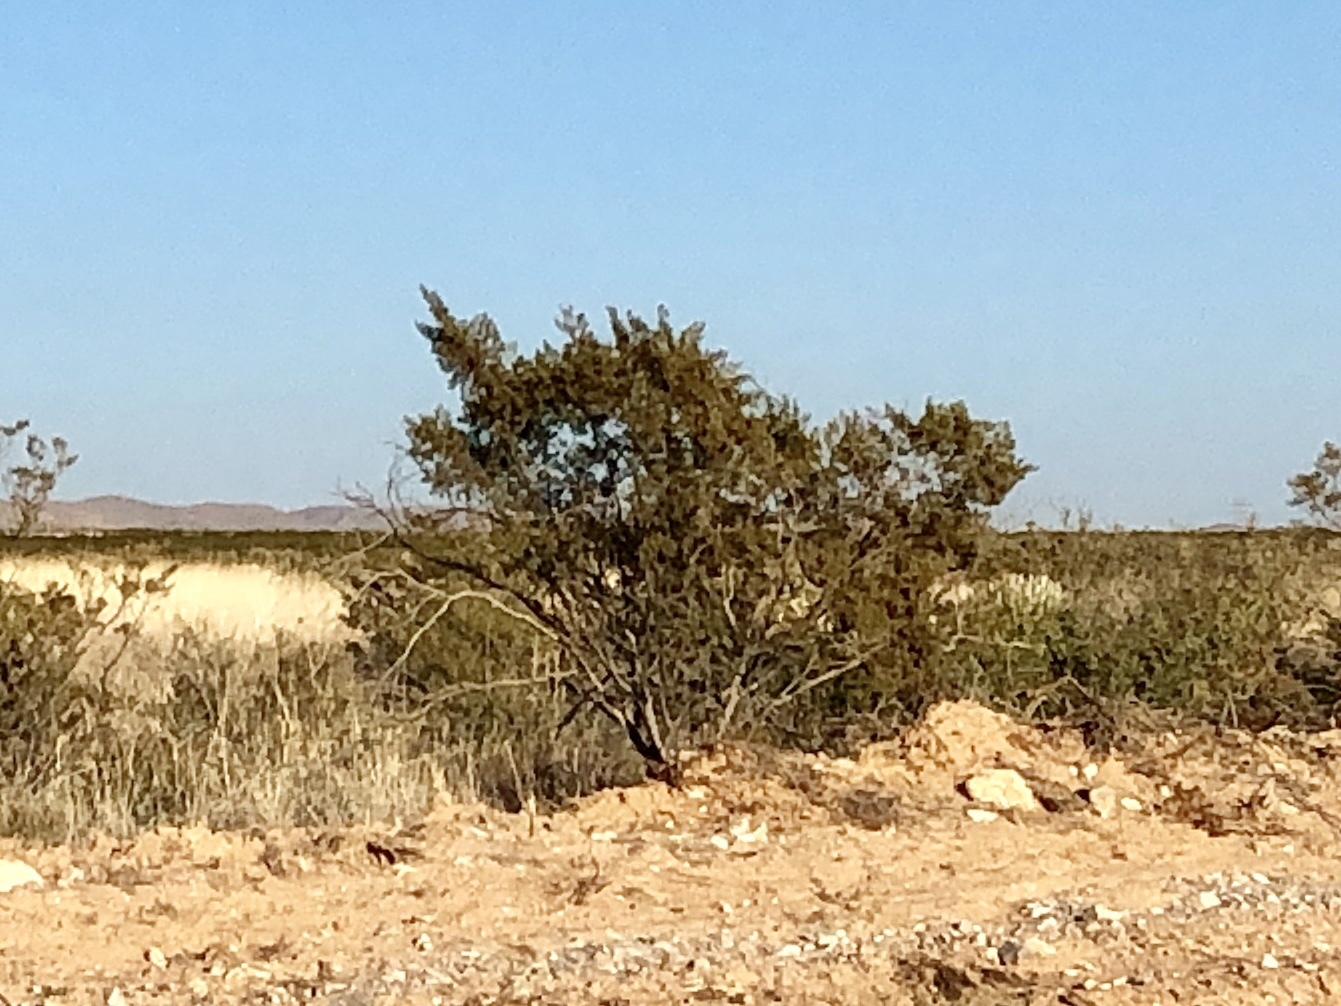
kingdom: Plantae
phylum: Tracheophyta
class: Magnoliopsida
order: Zygophyllales
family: Zygophyllaceae
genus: Larrea
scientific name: Larrea tridentata
